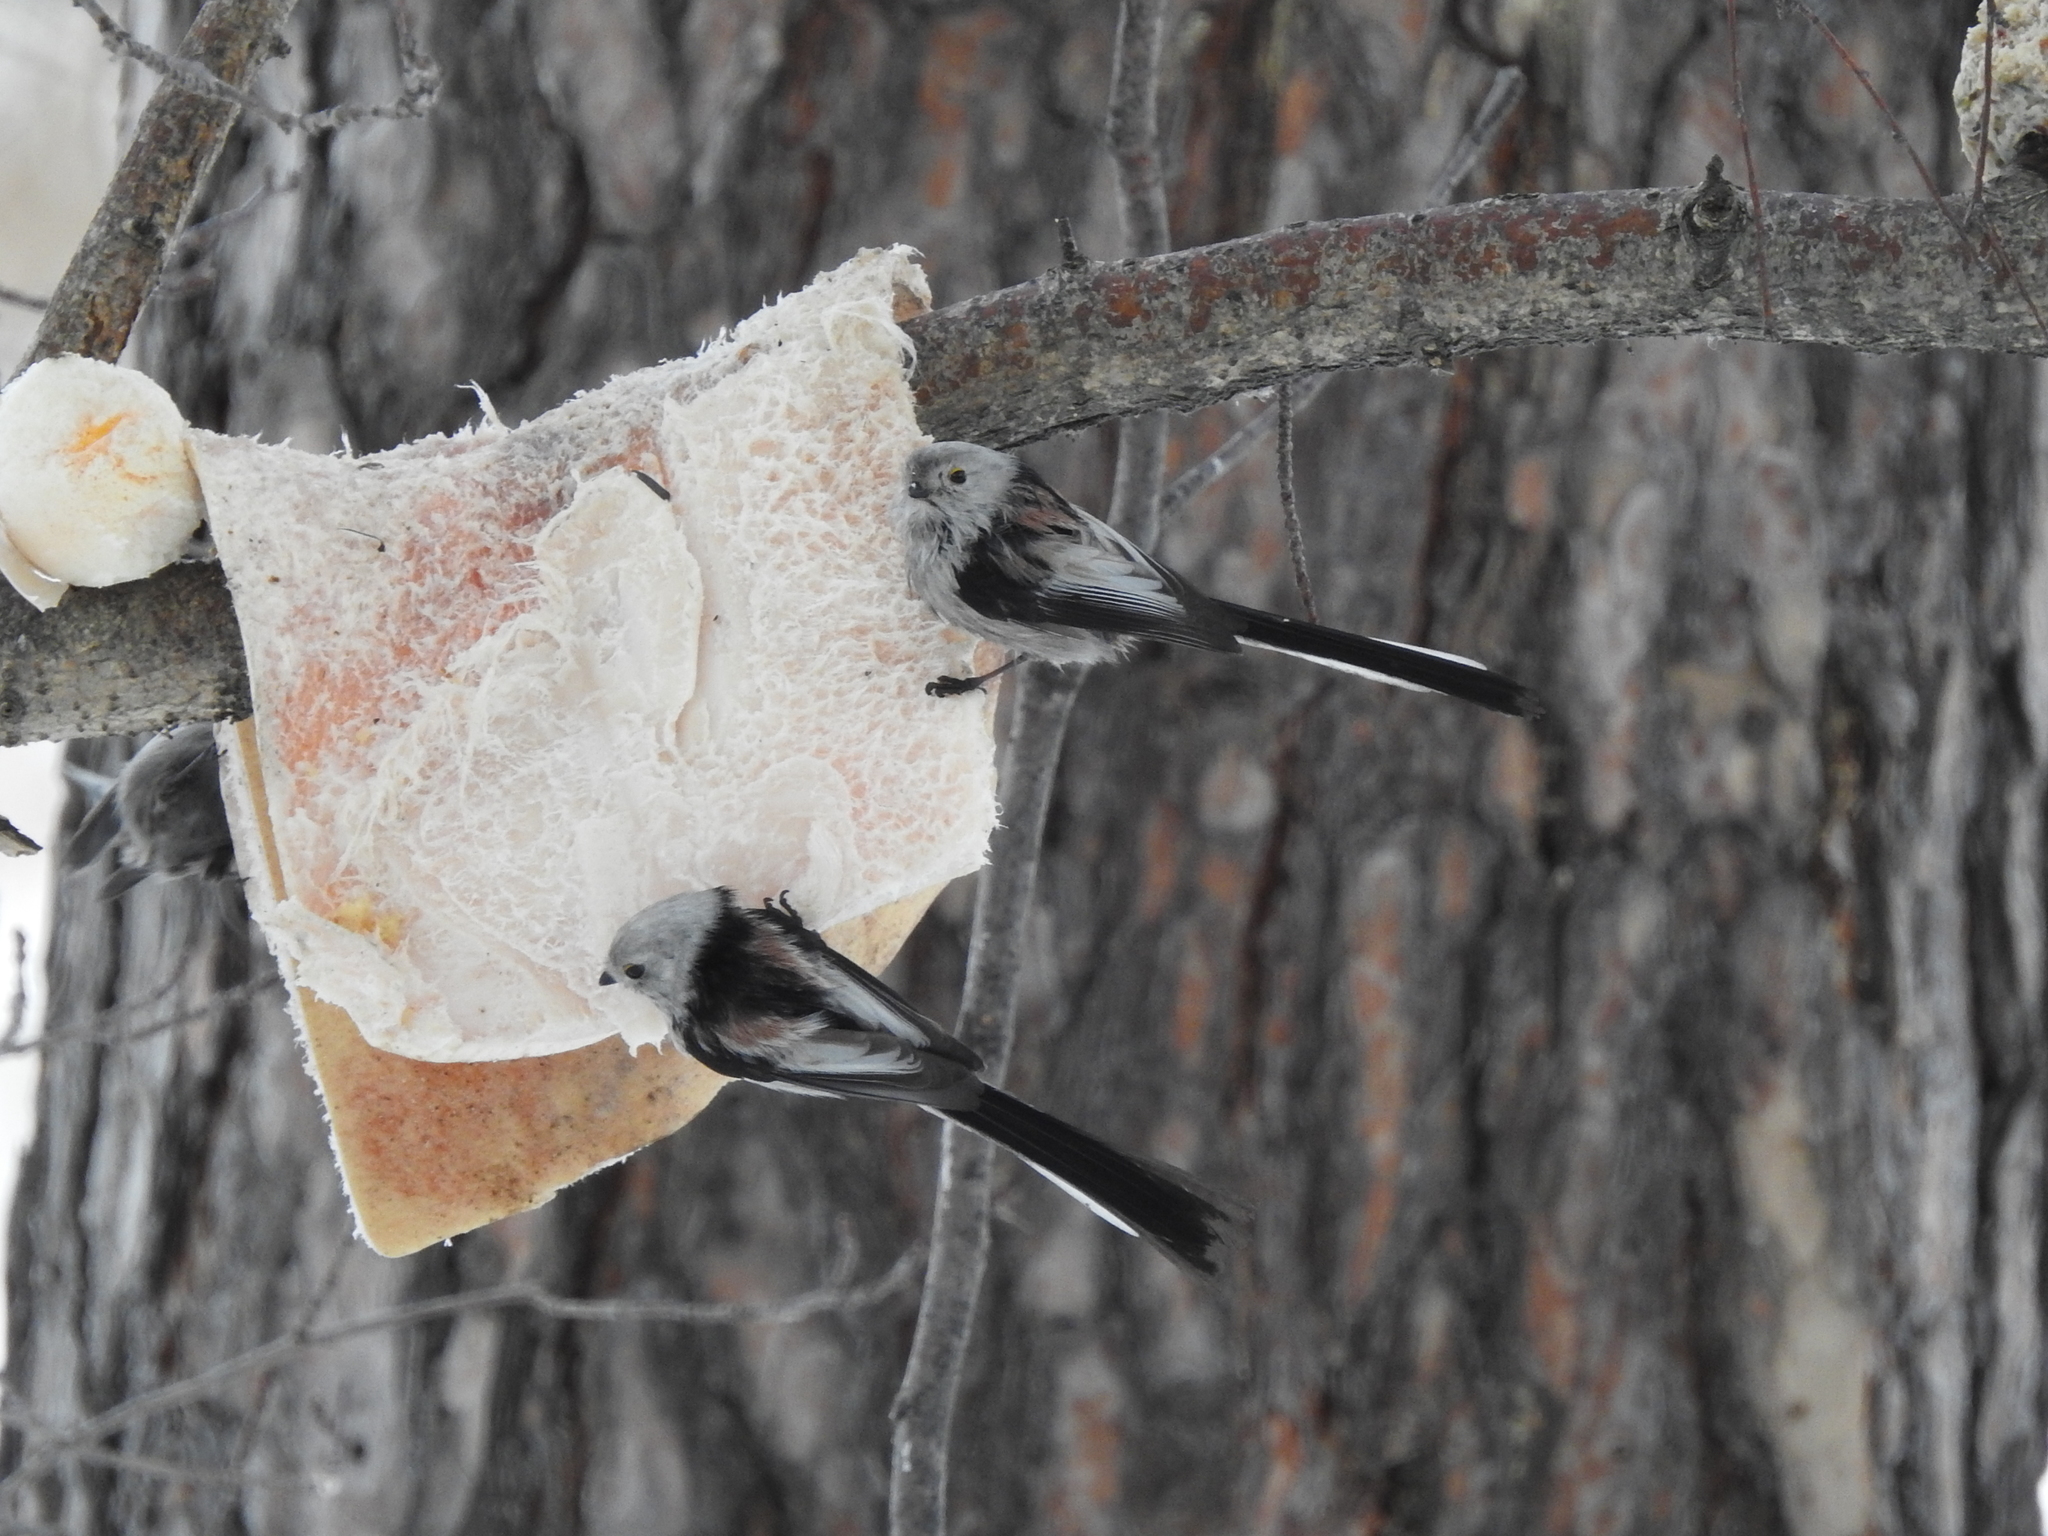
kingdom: Animalia
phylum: Chordata
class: Aves
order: Passeriformes
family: Aegithalidae
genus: Aegithalos
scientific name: Aegithalos caudatus
